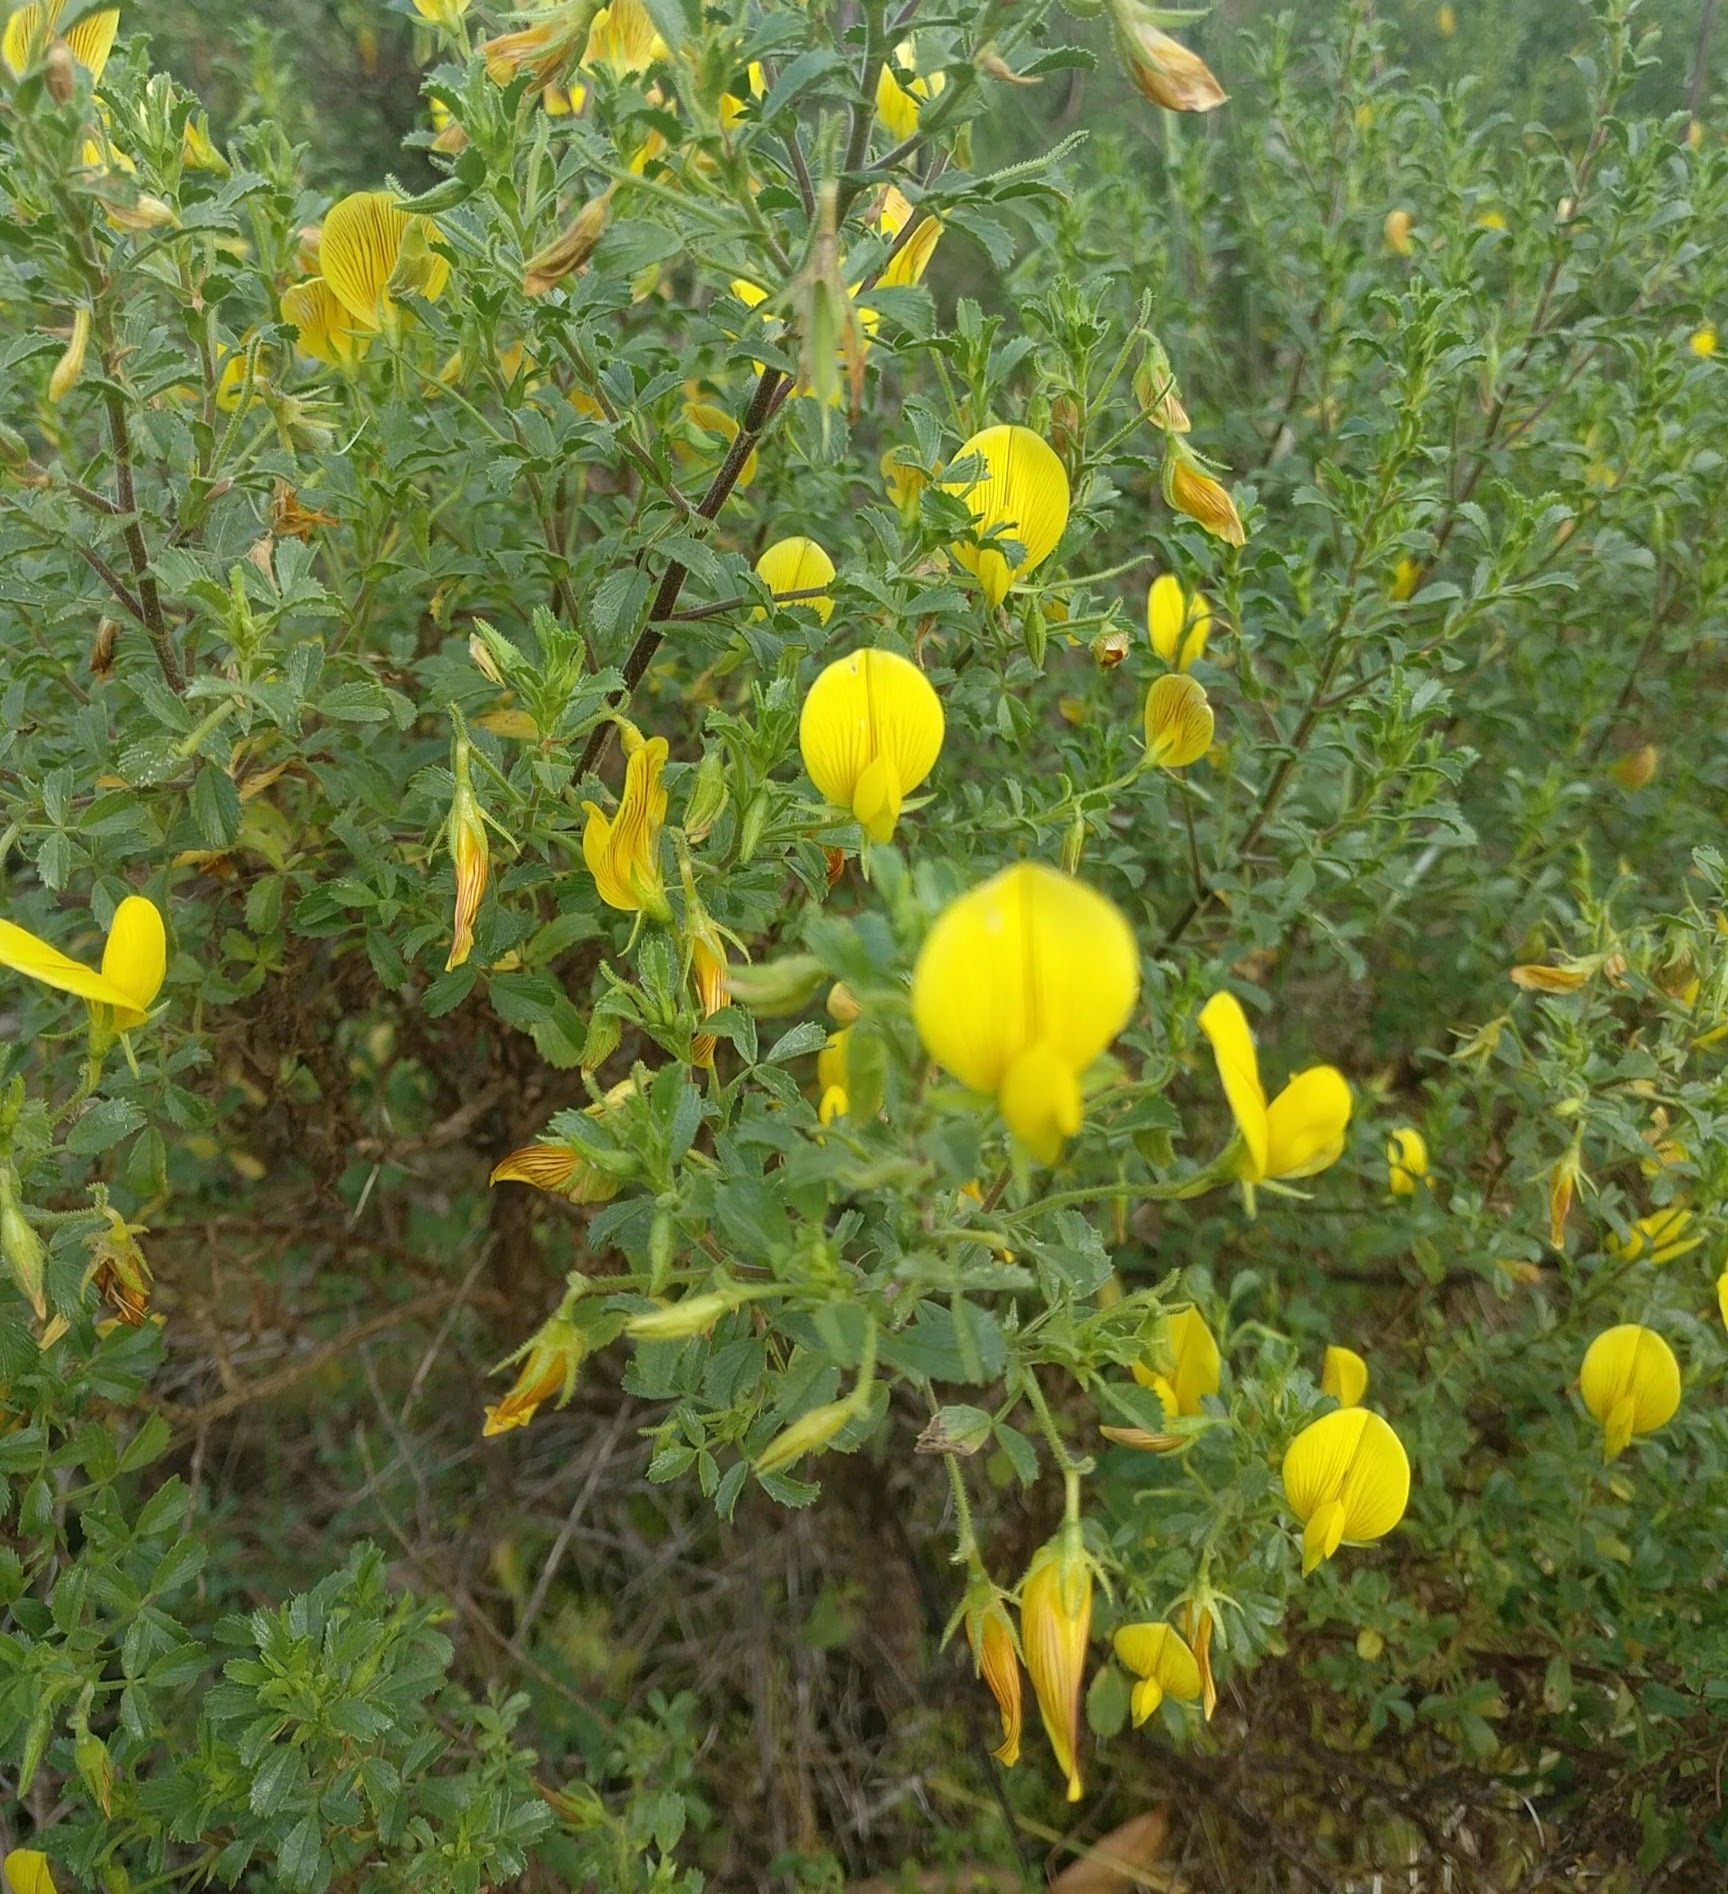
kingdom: Plantae
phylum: Tracheophyta
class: Magnoliopsida
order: Fabales
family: Fabaceae
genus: Ononis
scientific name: Ononis ramosissima
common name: Bush restharrow
